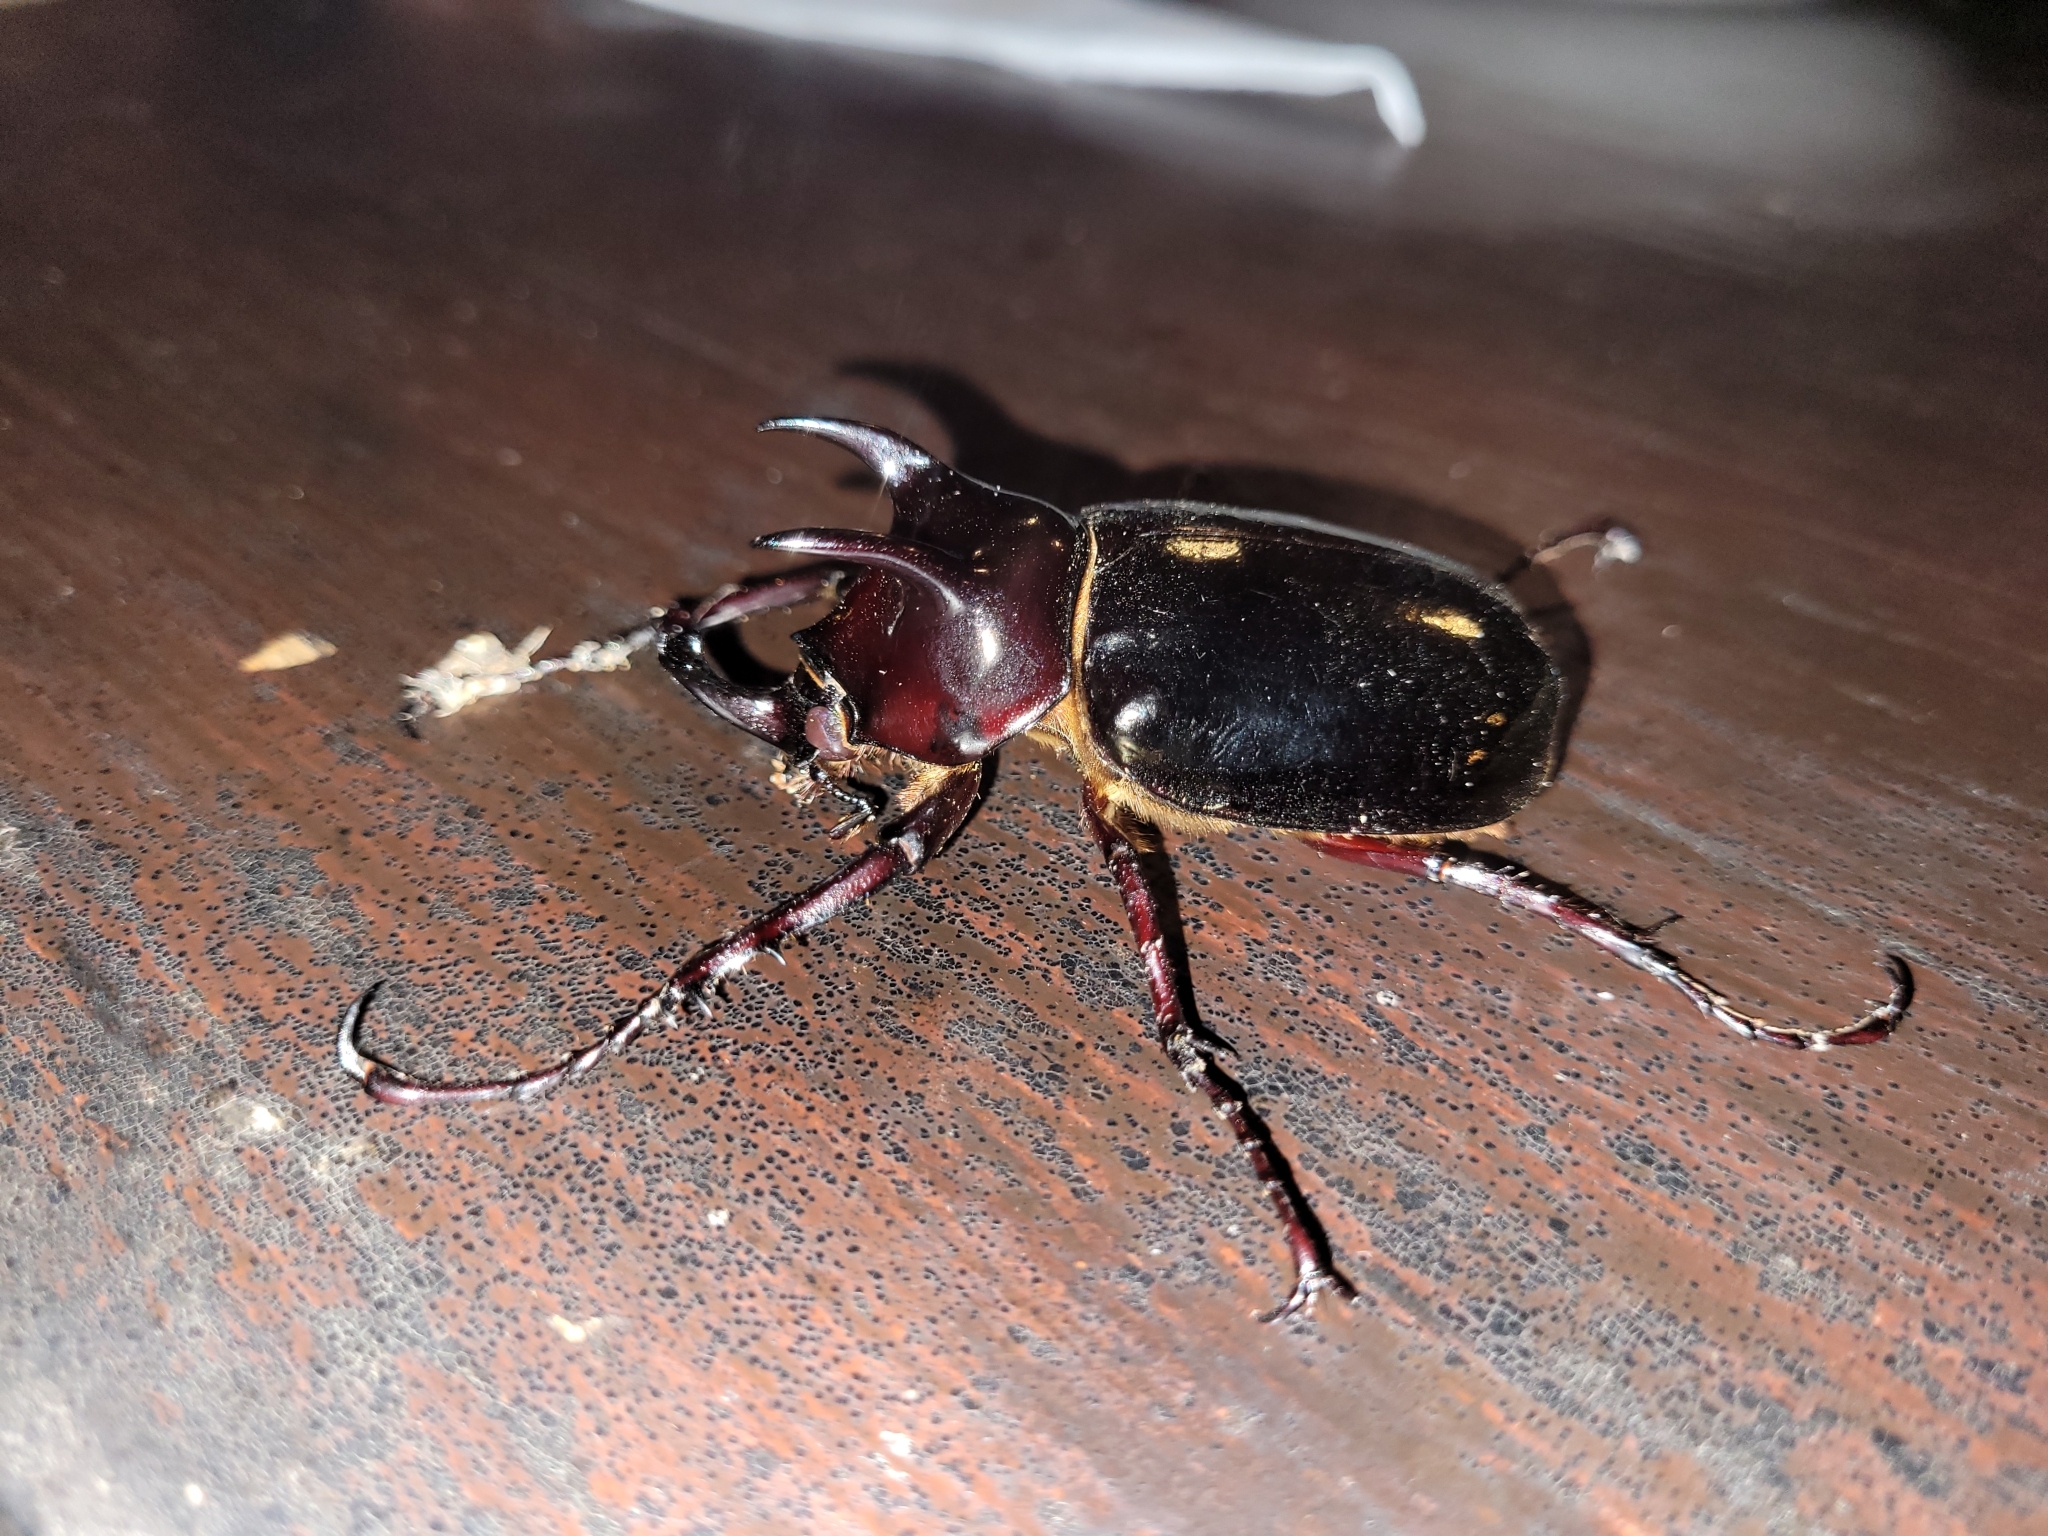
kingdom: Animalia
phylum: Arthropoda
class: Insecta
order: Coleoptera
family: Scarabaeidae
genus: Chalcosoma
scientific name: Chalcosoma atlas
